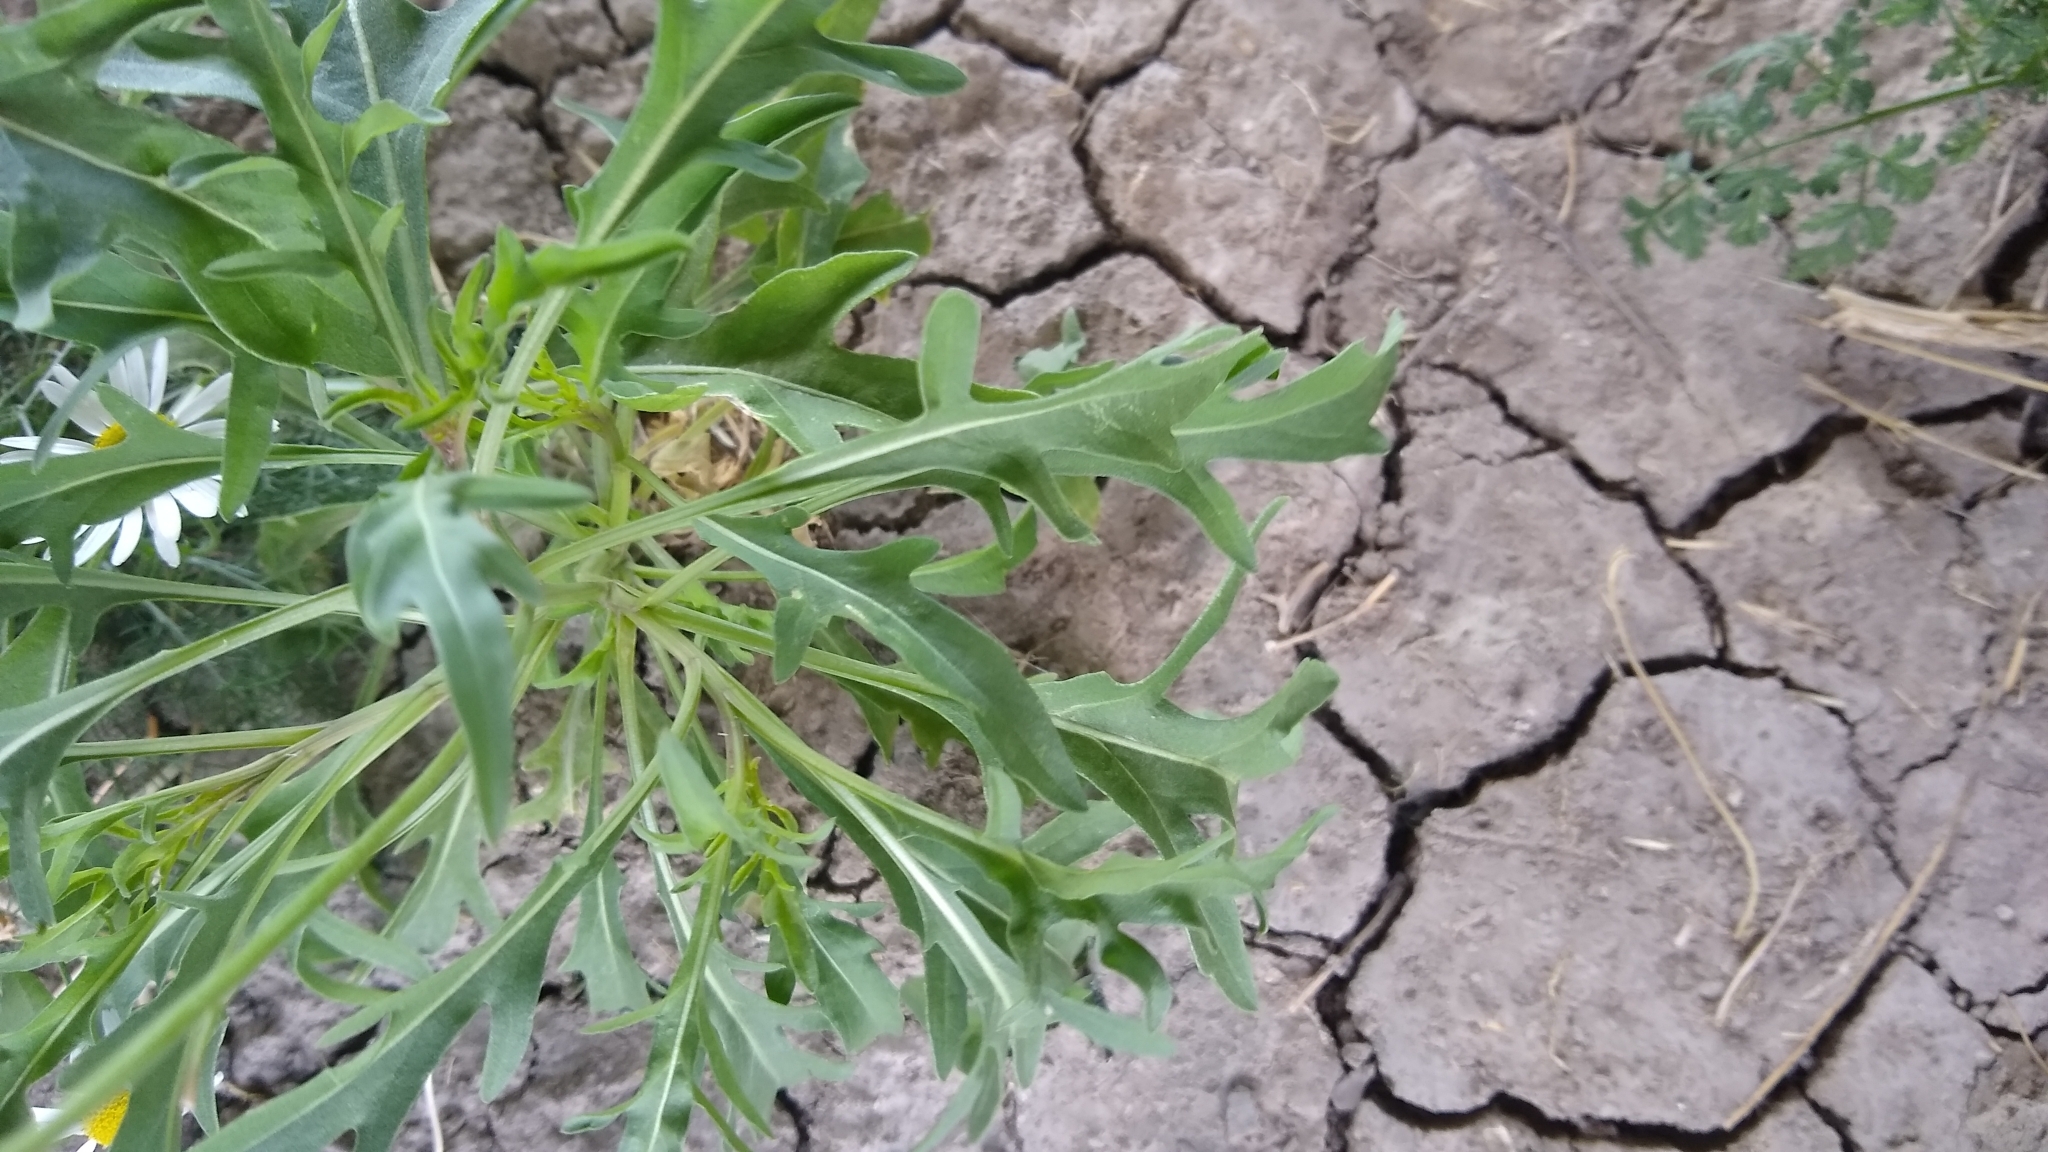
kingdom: Plantae
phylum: Tracheophyta
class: Magnoliopsida
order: Brassicales
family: Brassicaceae
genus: Diplotaxis
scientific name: Diplotaxis tenuifolia
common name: Perennial wall-rocket
